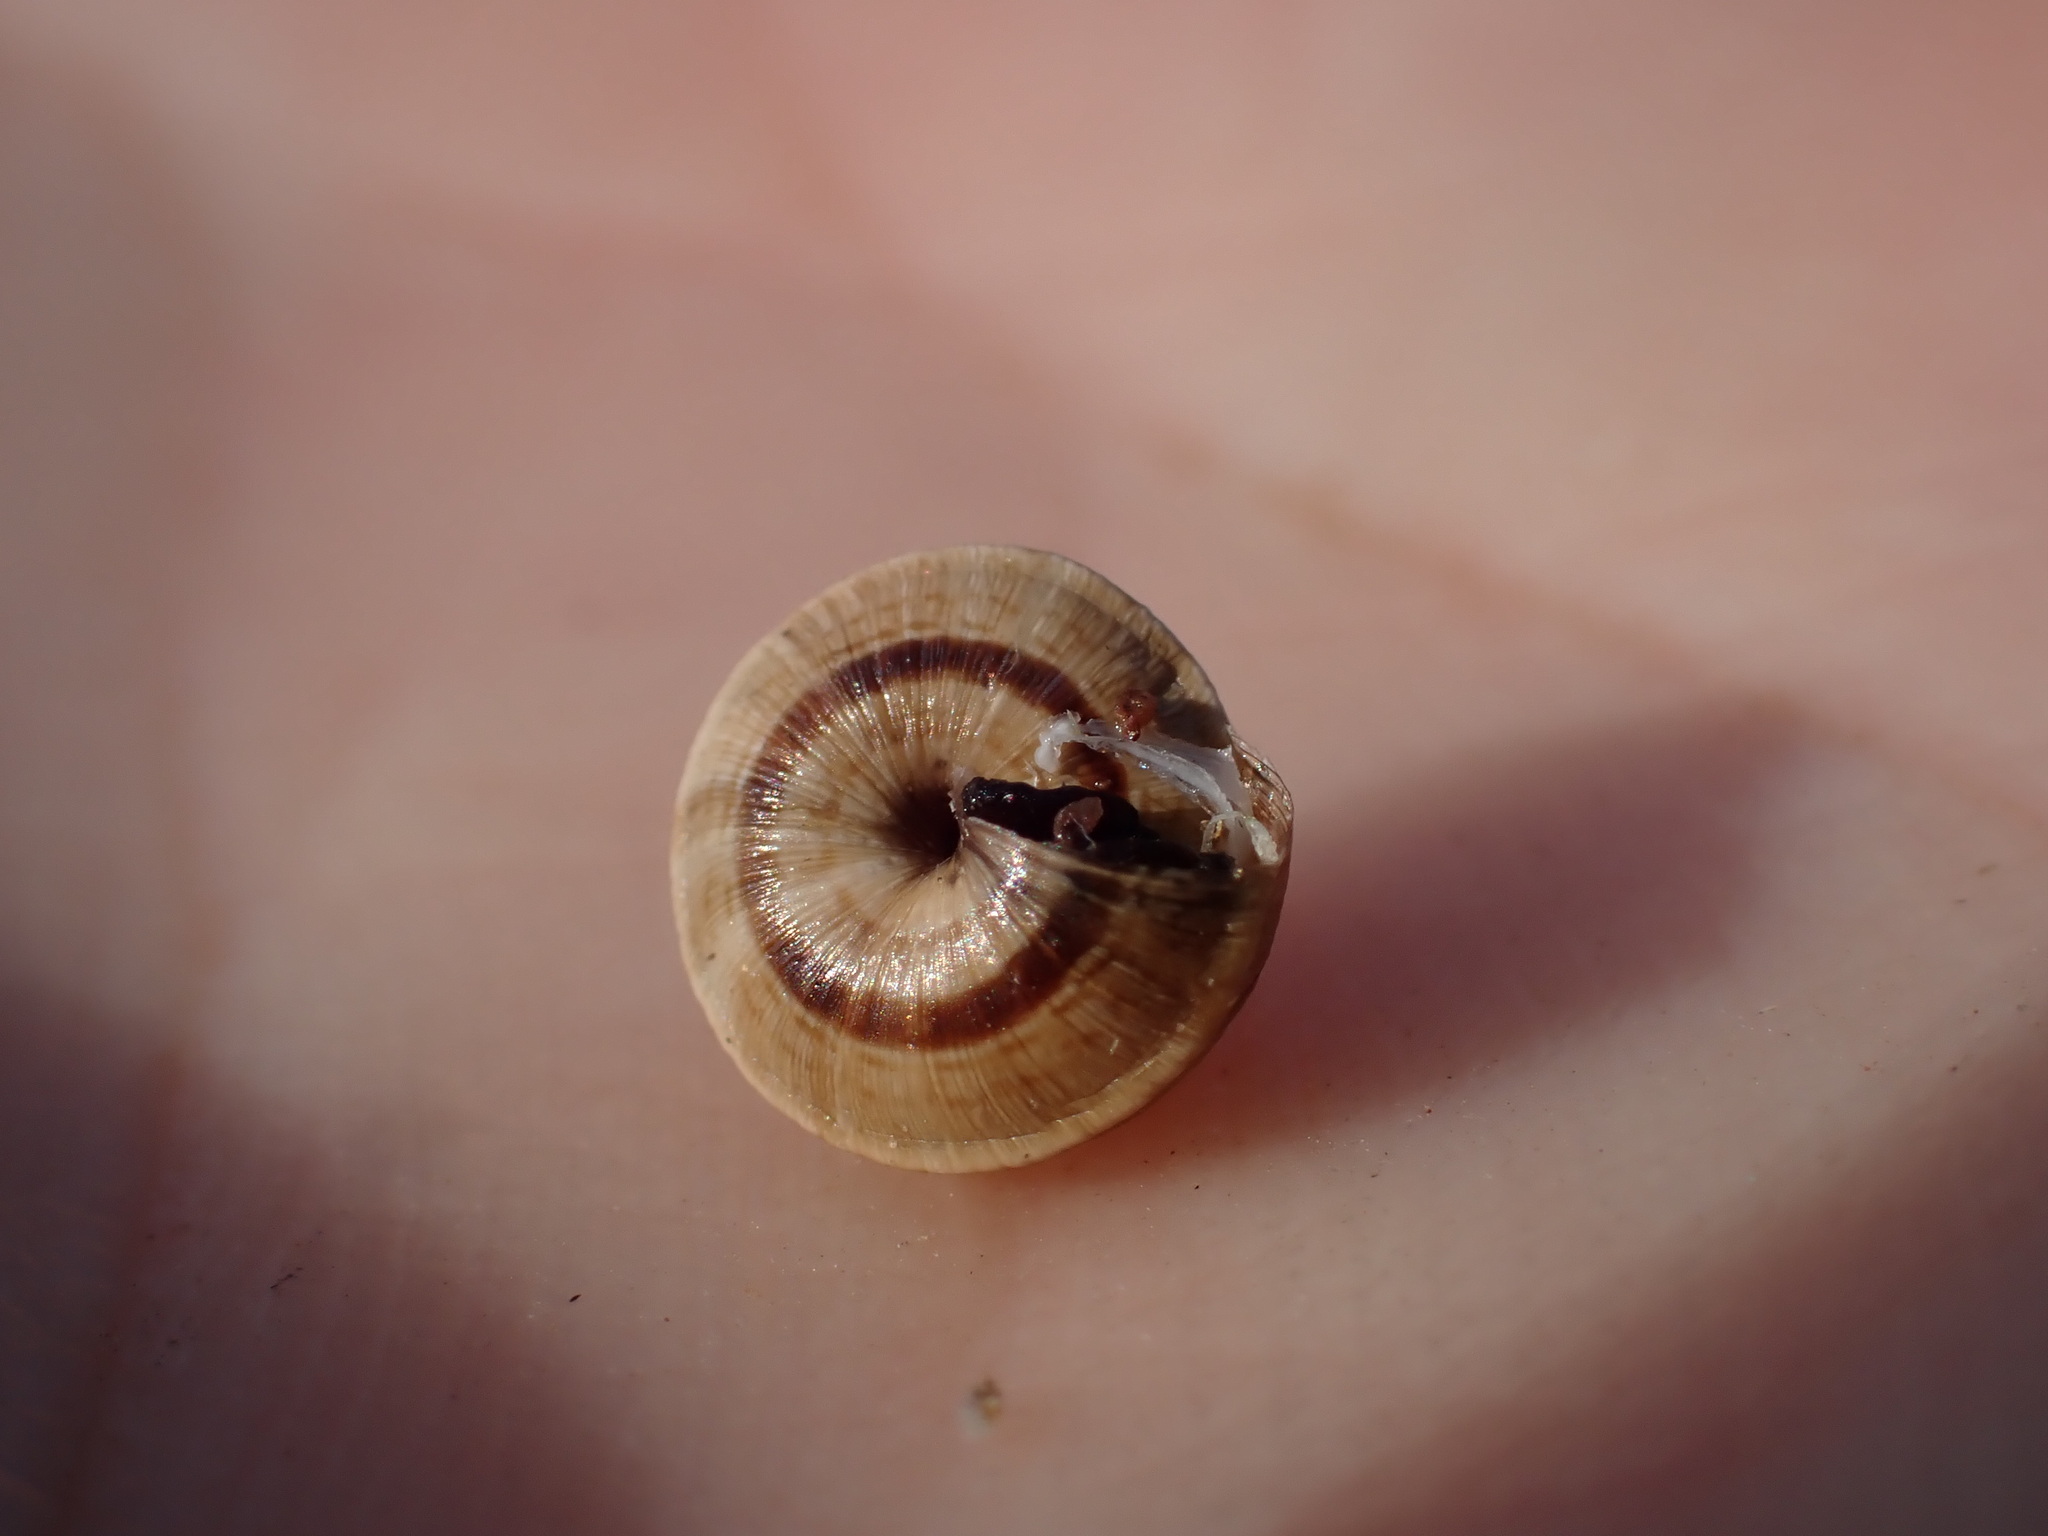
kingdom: Animalia
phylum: Mollusca
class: Gastropoda
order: Stylommatophora
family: Geomitridae
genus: Trochoidea
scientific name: Trochoidea trochoides
